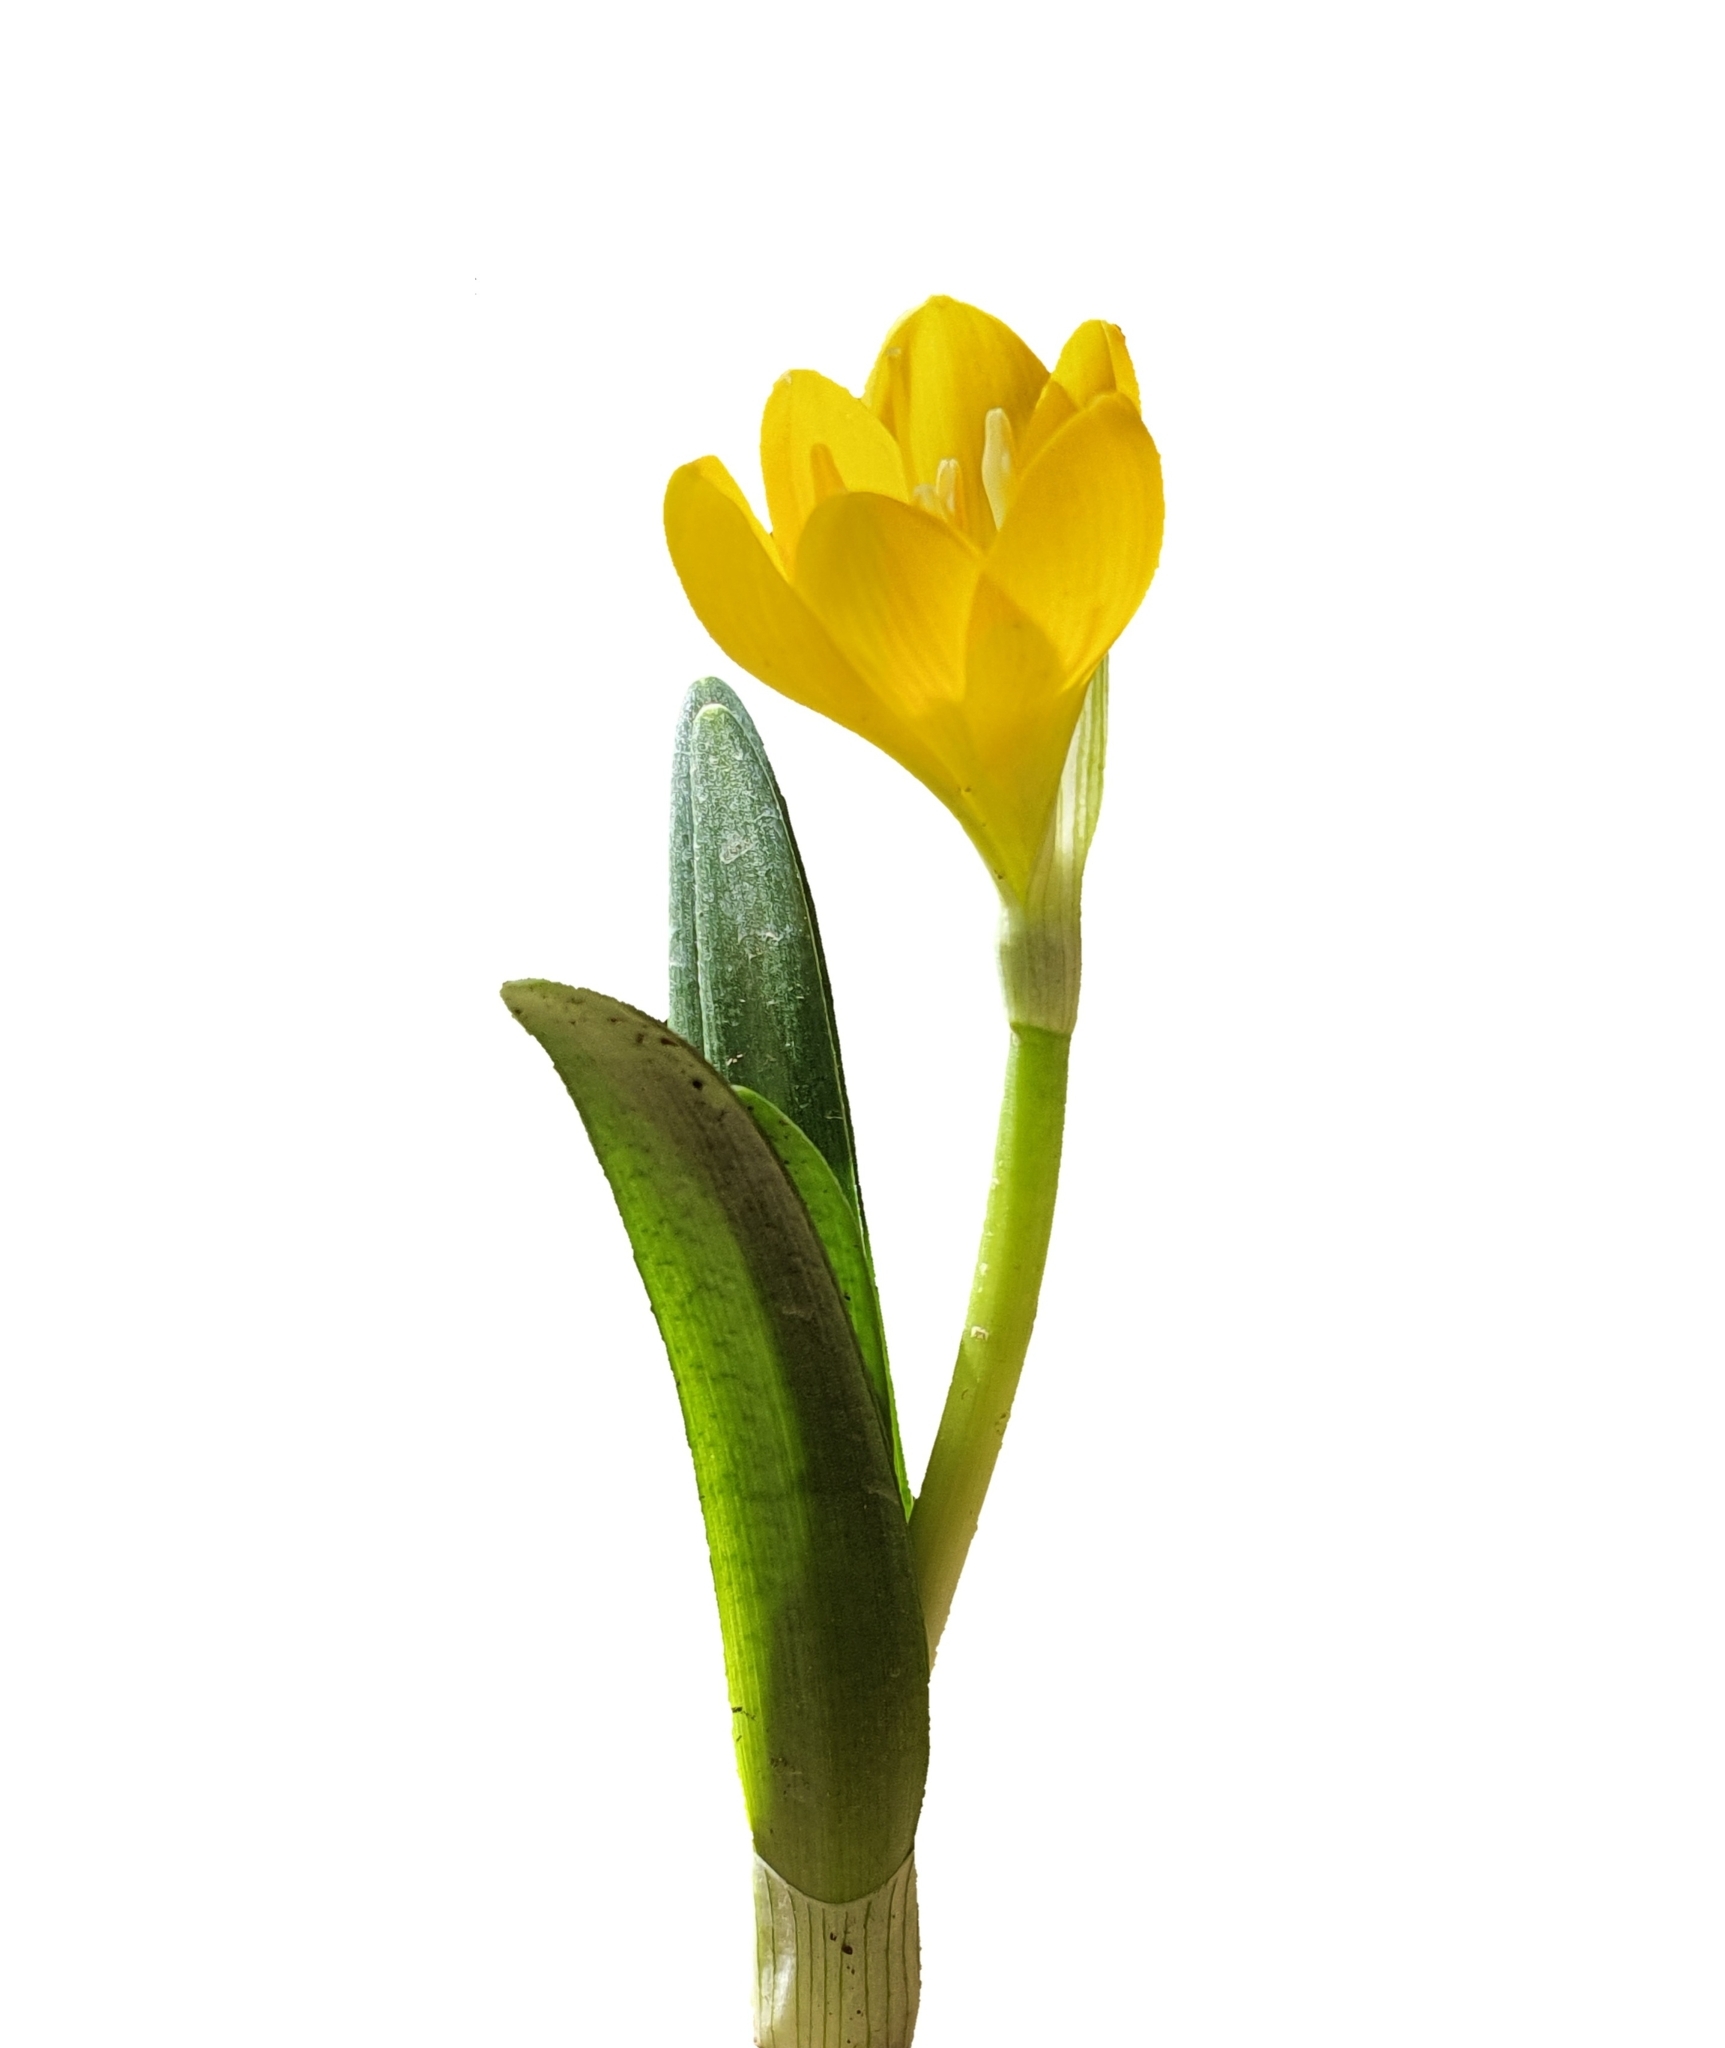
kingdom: Plantae
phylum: Tracheophyta
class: Liliopsida
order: Asparagales
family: Amaryllidaceae
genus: Sternbergia
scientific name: Sternbergia lutea
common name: Winter daffodil
